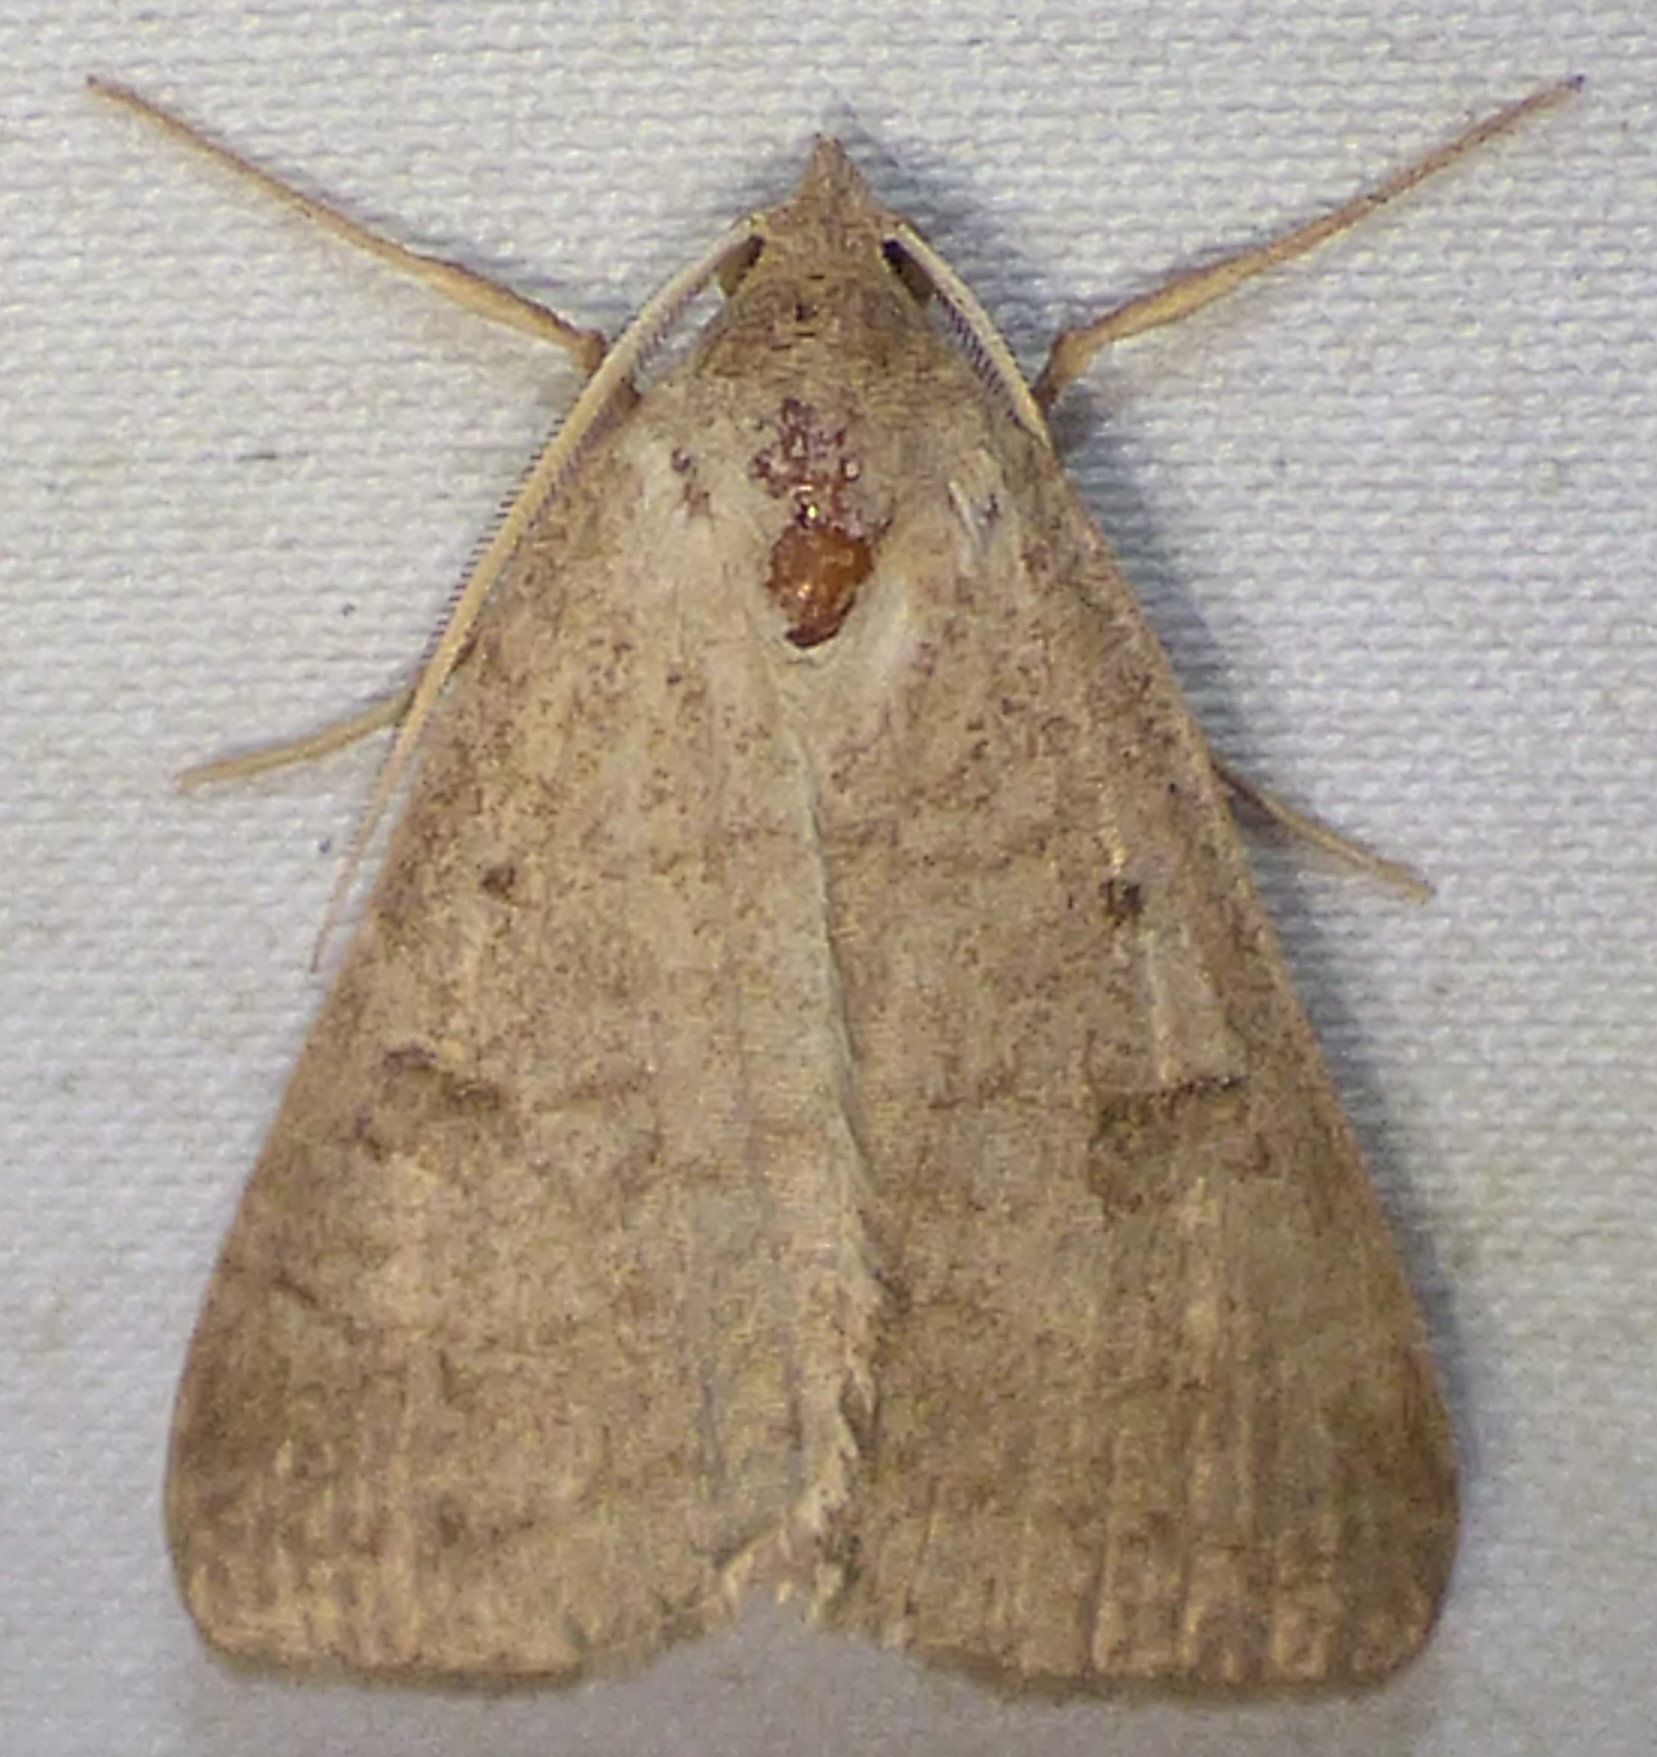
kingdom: Animalia
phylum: Arthropoda
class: Insecta
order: Lepidoptera
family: Erebidae
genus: Caenurgia
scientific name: Caenurgia chloropha
